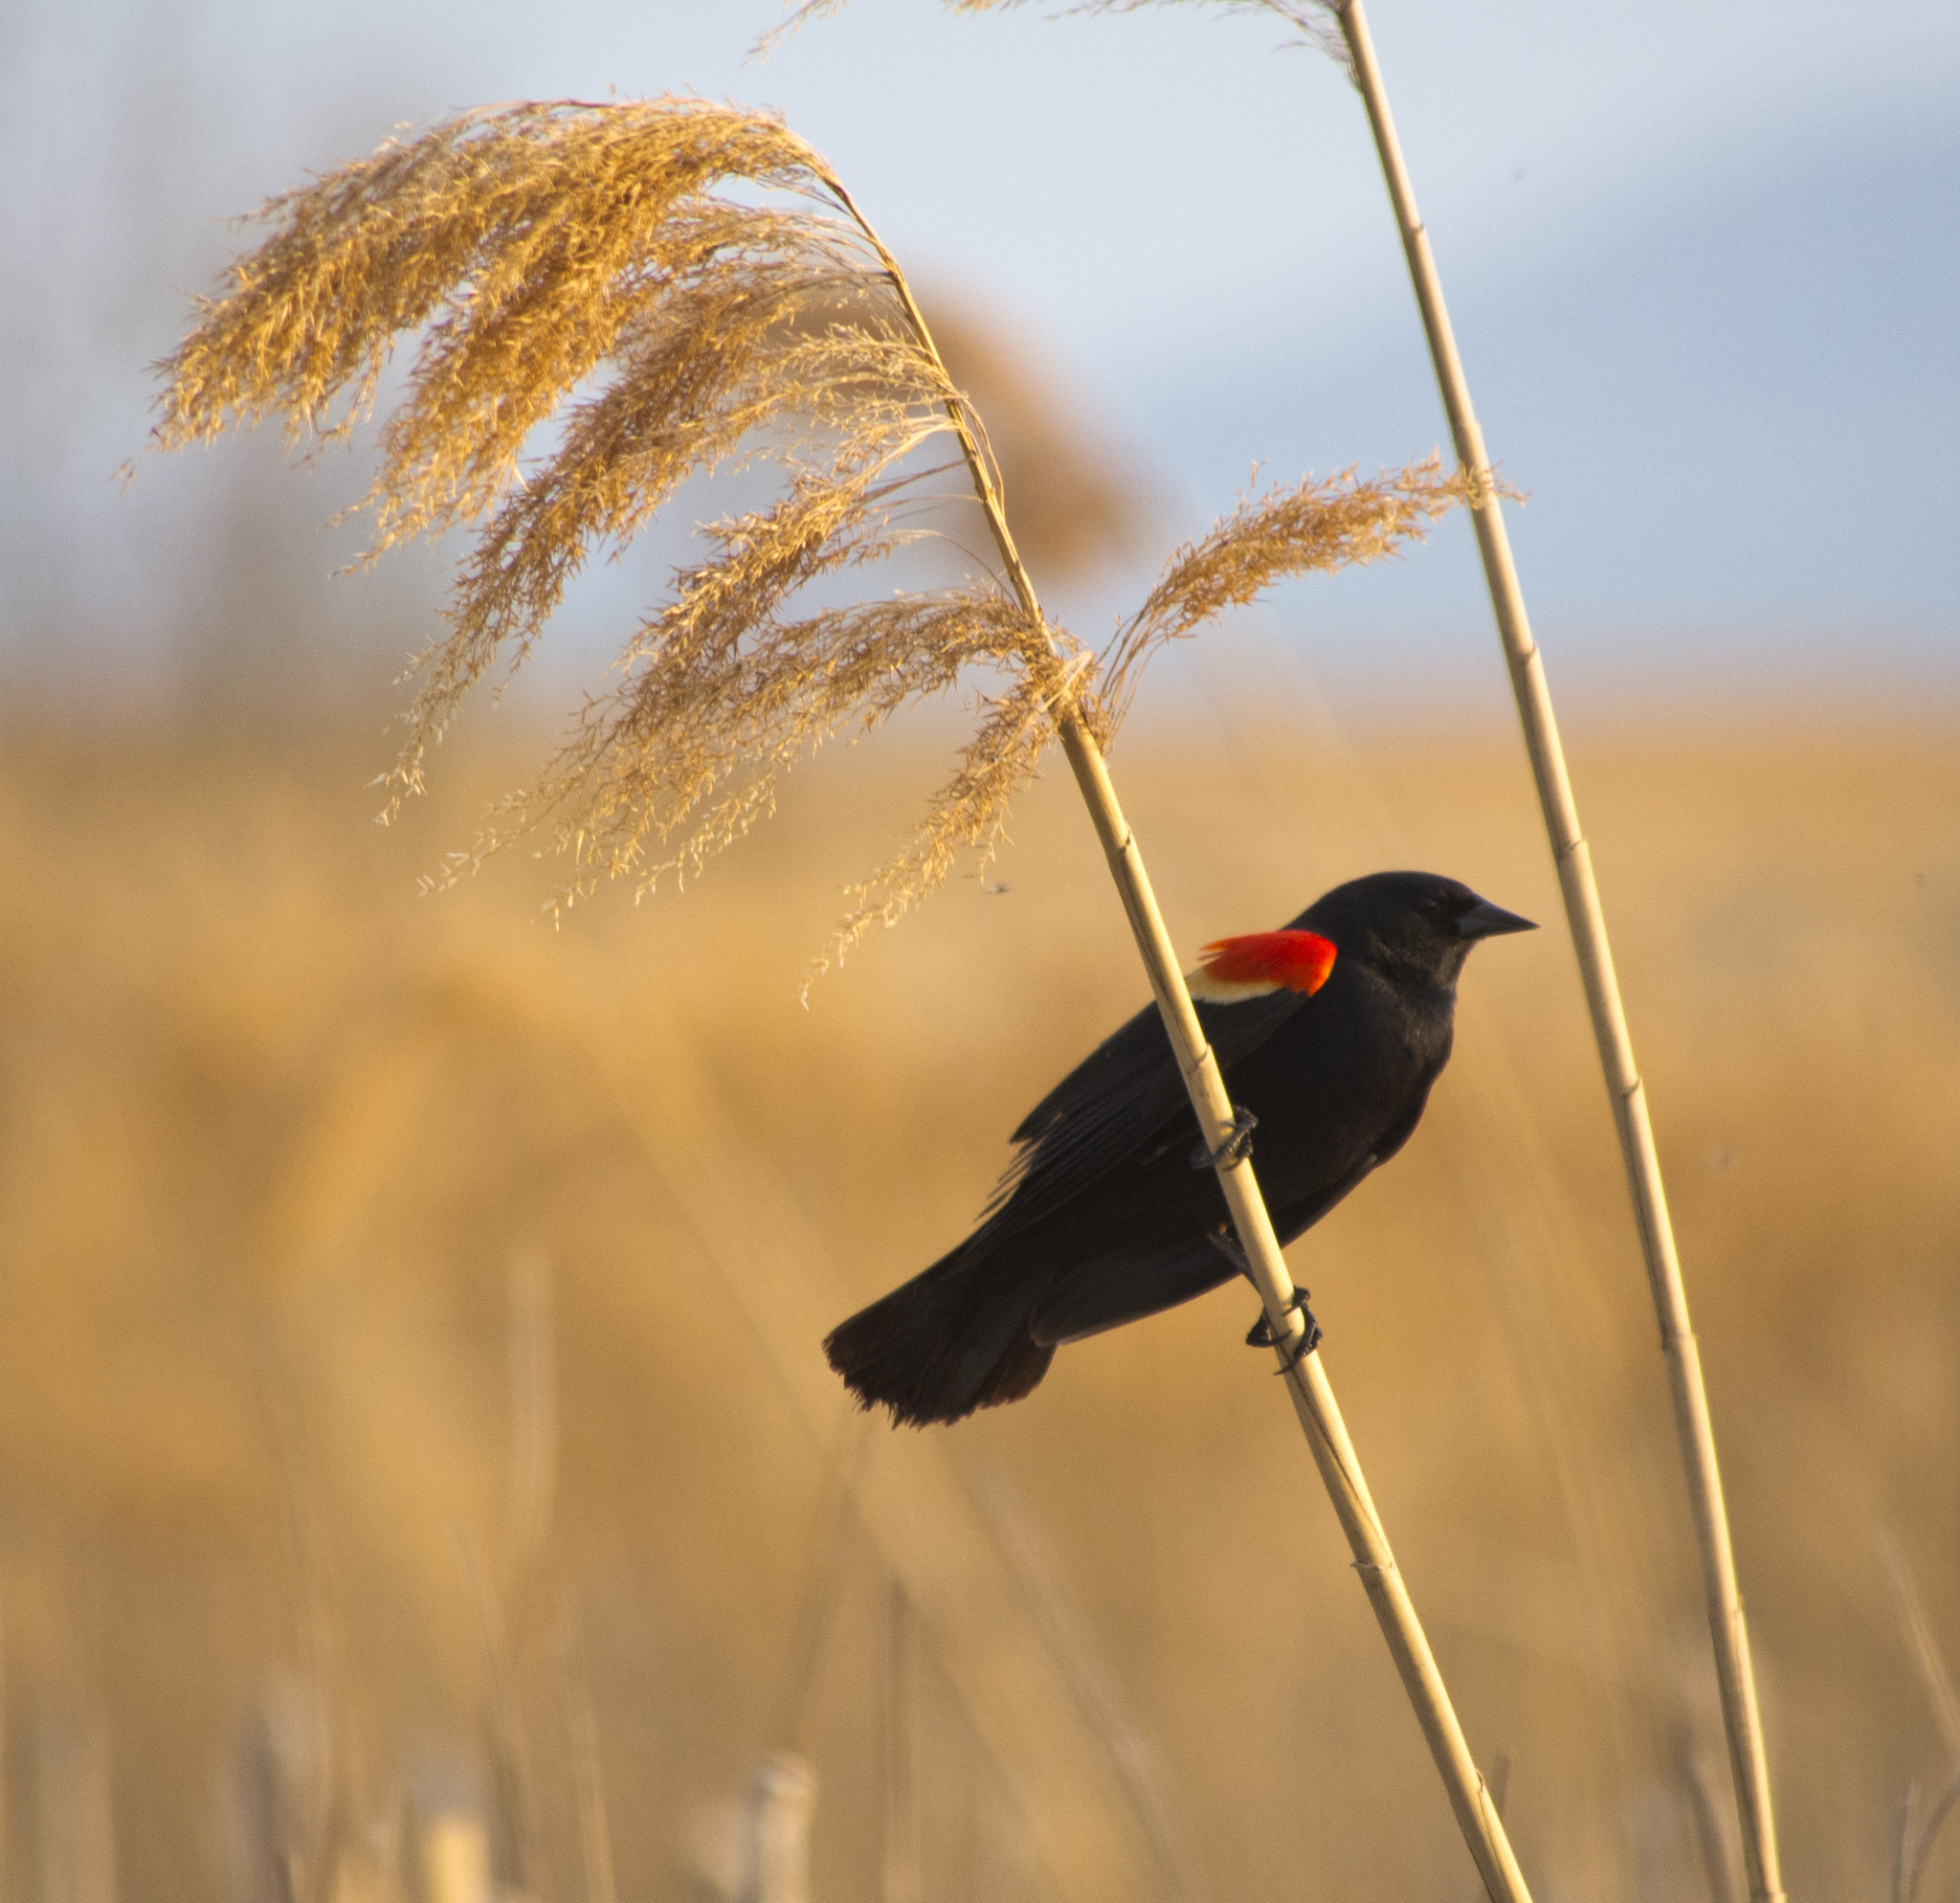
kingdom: Animalia
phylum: Chordata
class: Aves
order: Passeriformes
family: Icteridae
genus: Agelaius
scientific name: Agelaius phoeniceus
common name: Red-winged blackbird
